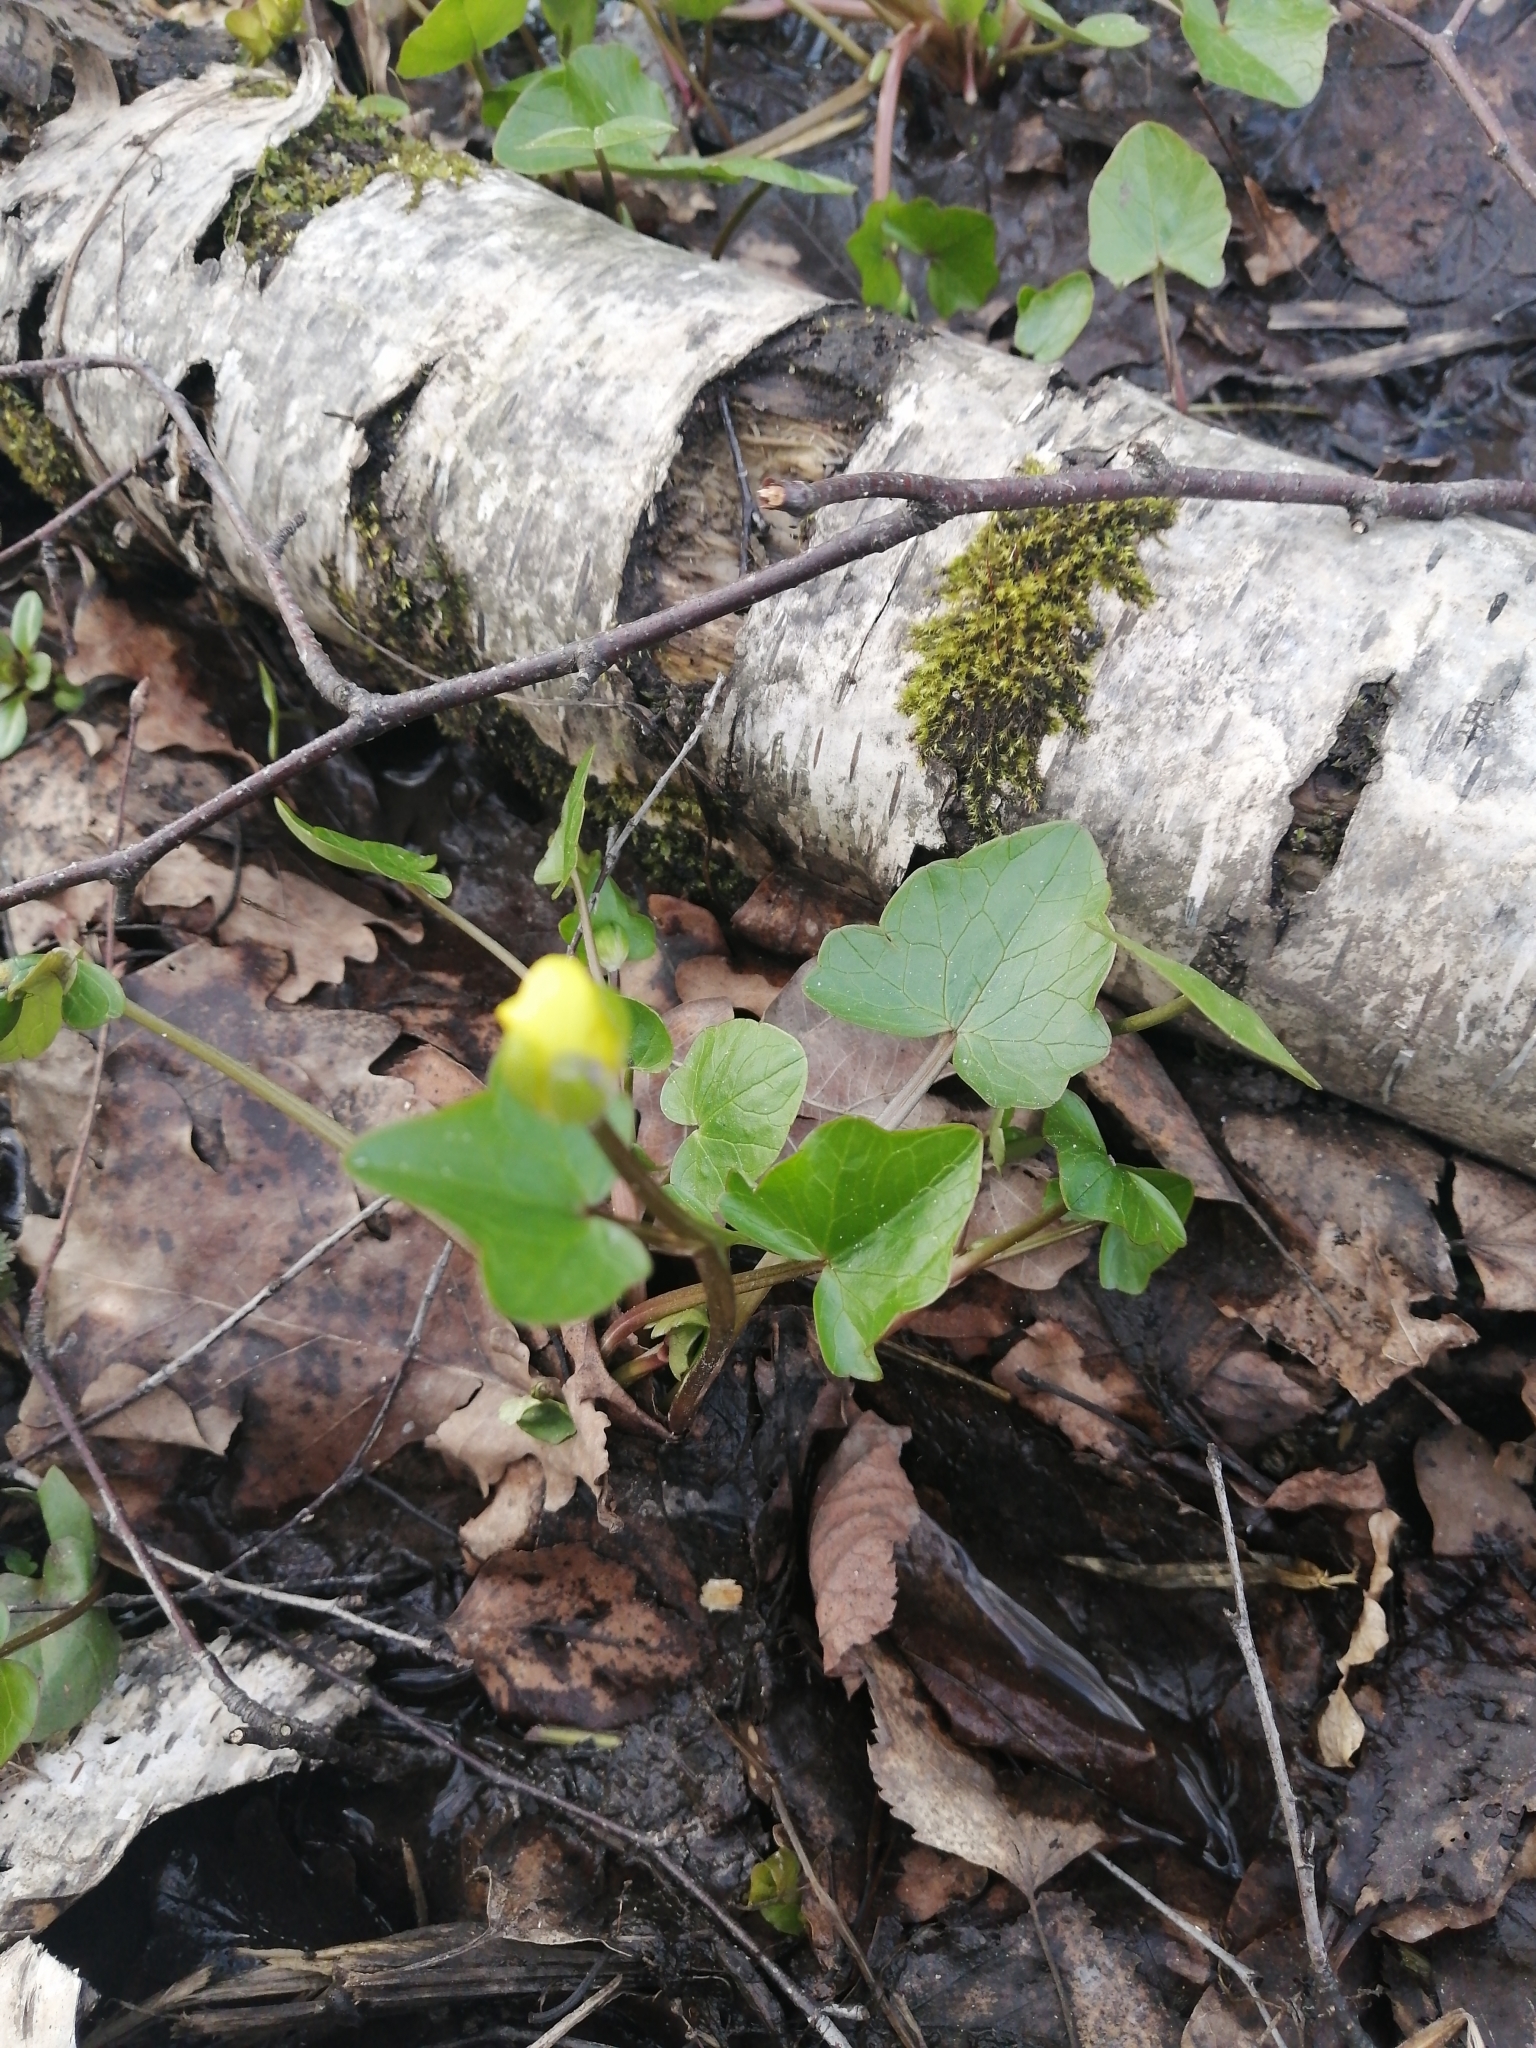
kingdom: Plantae
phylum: Tracheophyta
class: Magnoliopsida
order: Ranunculales
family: Ranunculaceae
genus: Ficaria
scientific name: Ficaria verna
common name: Lesser celandine
